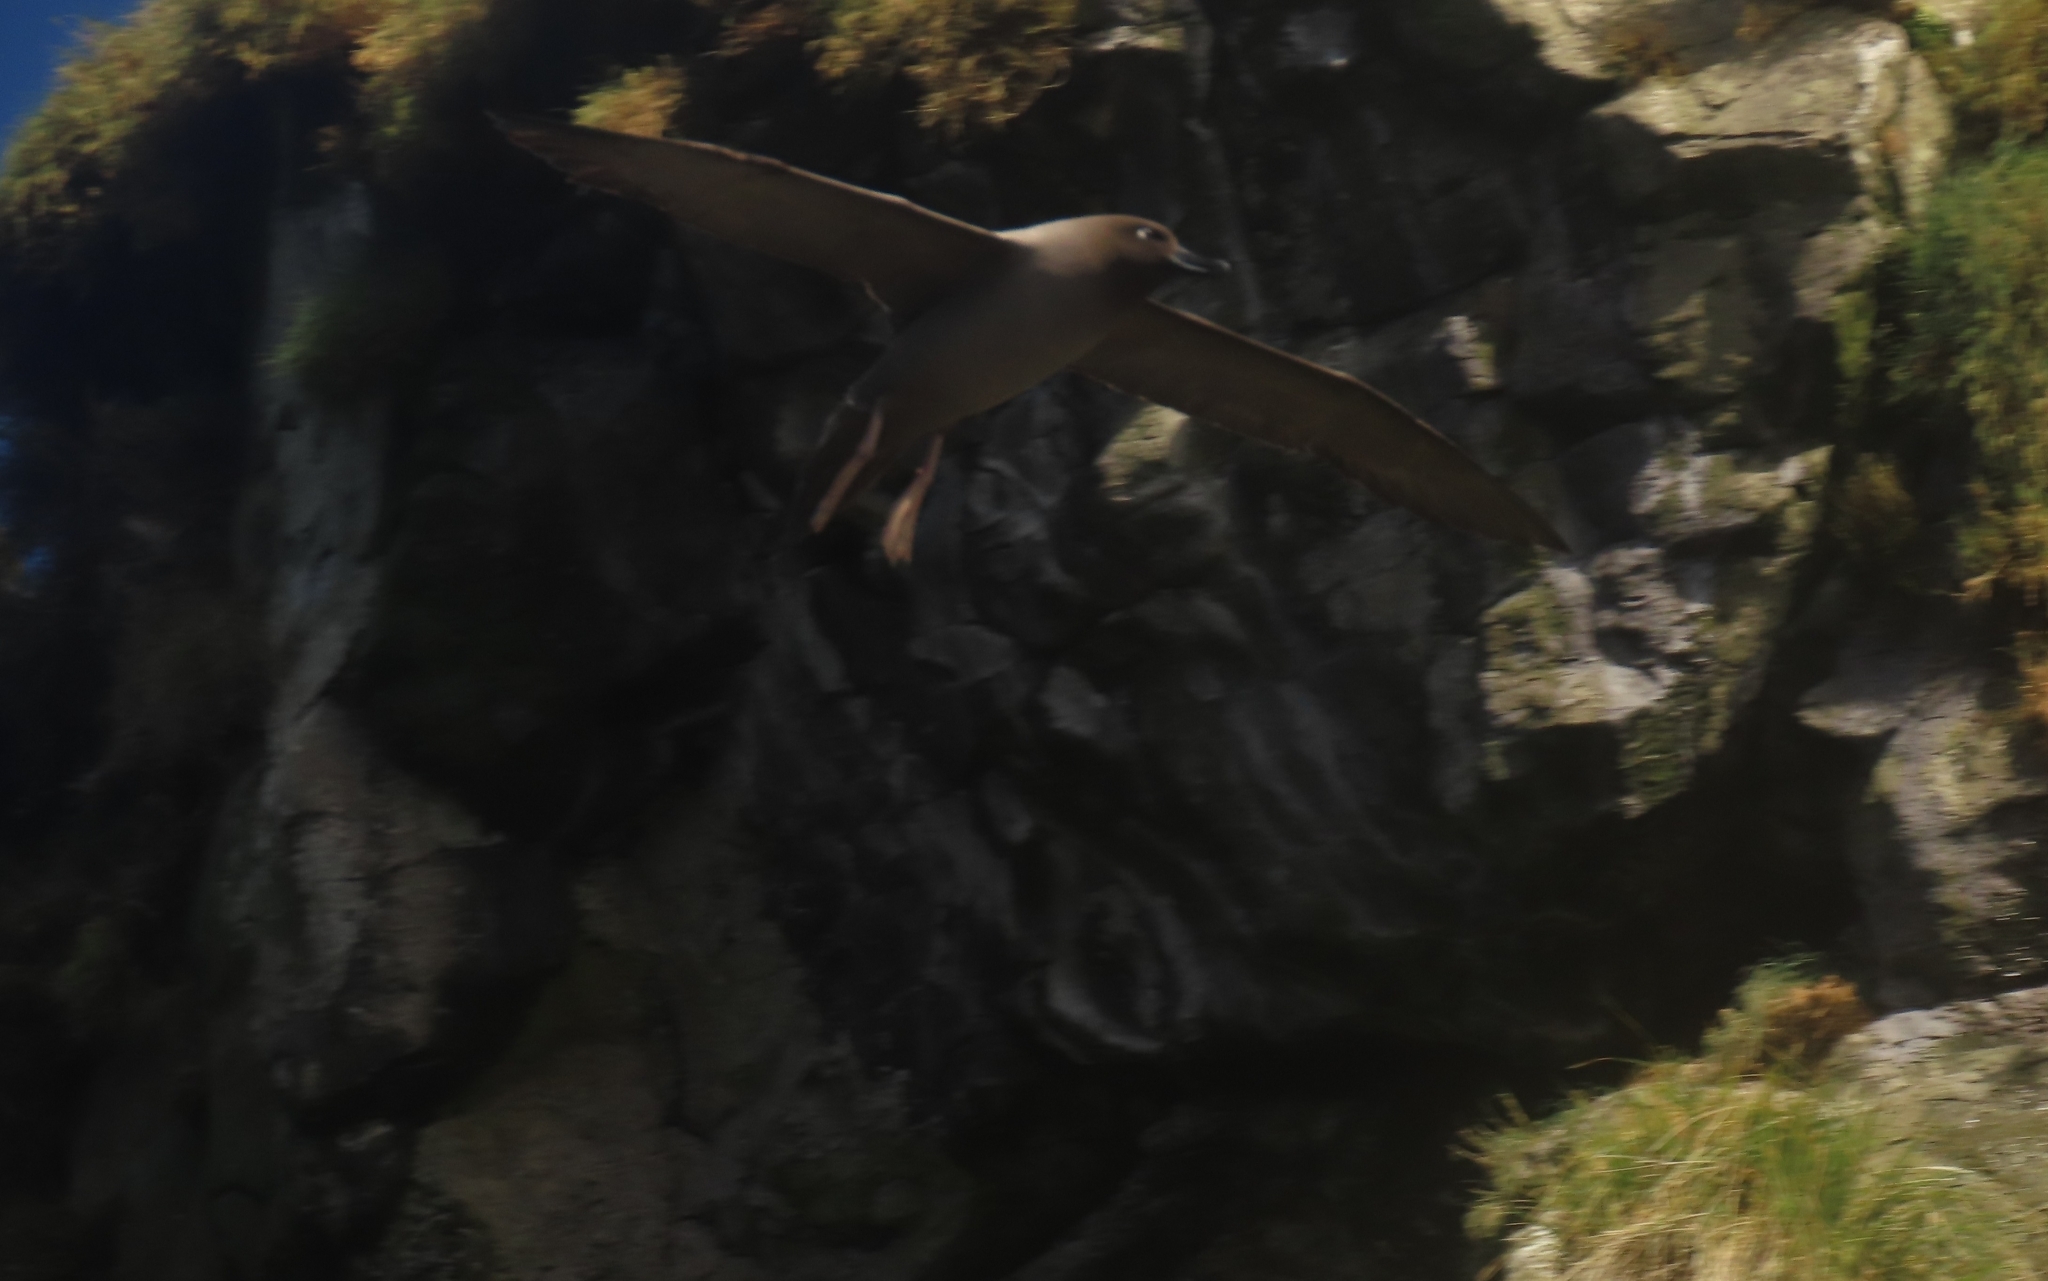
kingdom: Animalia
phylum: Chordata
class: Aves
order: Procellariiformes
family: Diomedeidae
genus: Phoebetria
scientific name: Phoebetria palpebrata
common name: Light-mantled albatross
